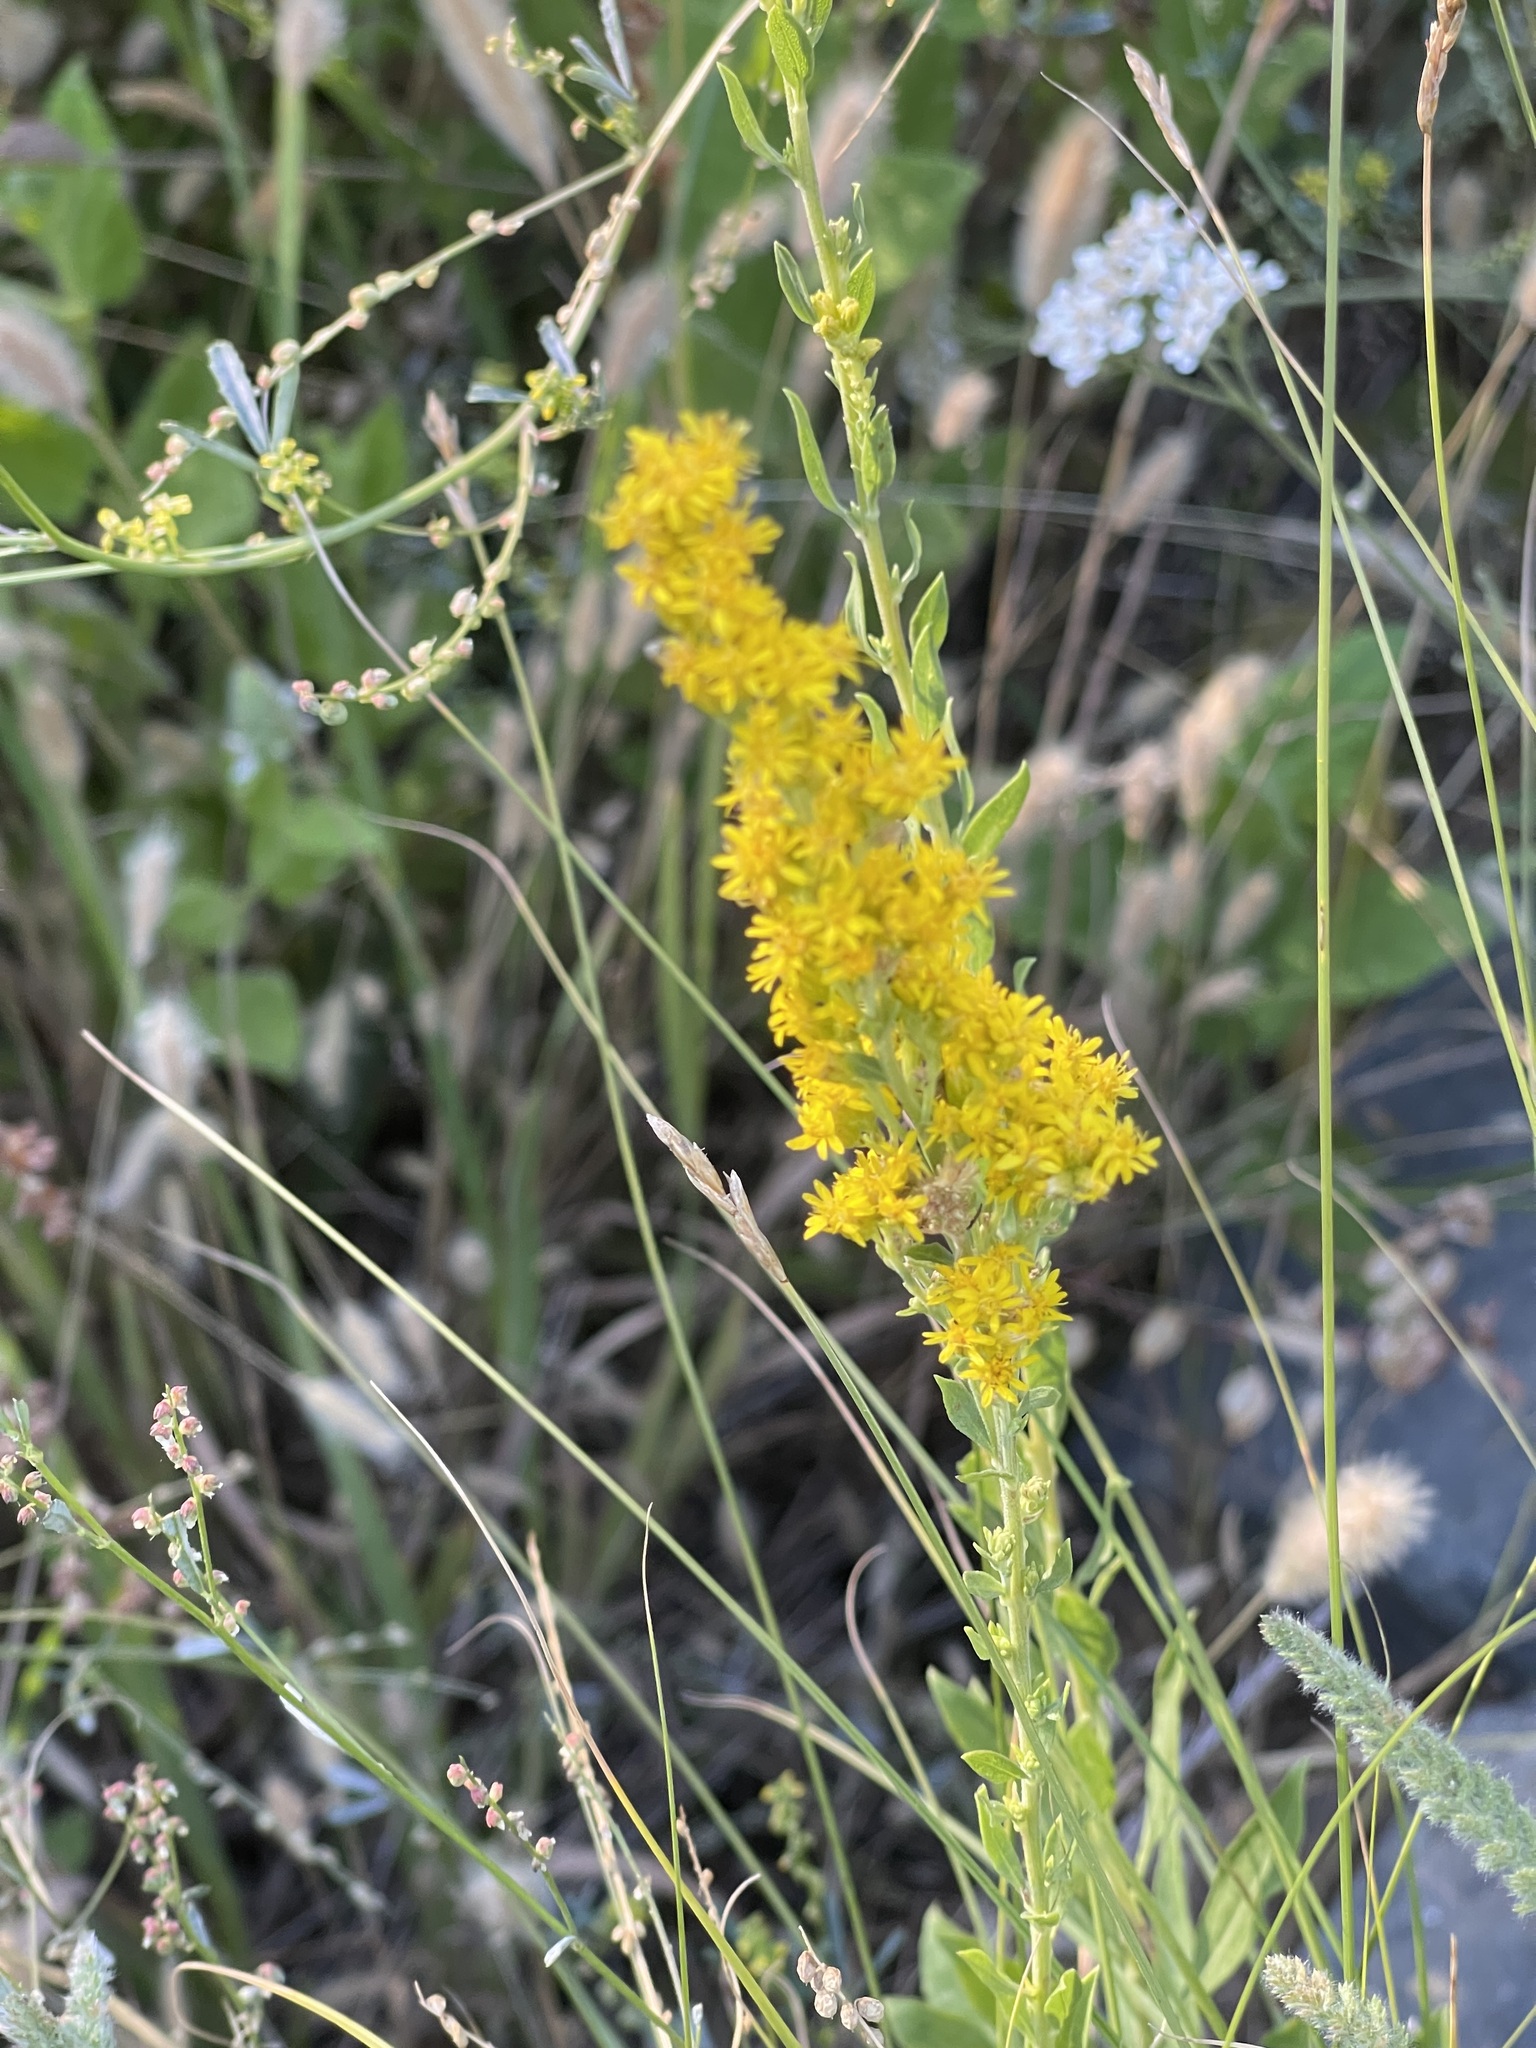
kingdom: Plantae
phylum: Tracheophyta
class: Magnoliopsida
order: Asterales
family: Asteraceae
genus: Solidago
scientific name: Solidago velutina
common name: Three-nerve goldenrod
